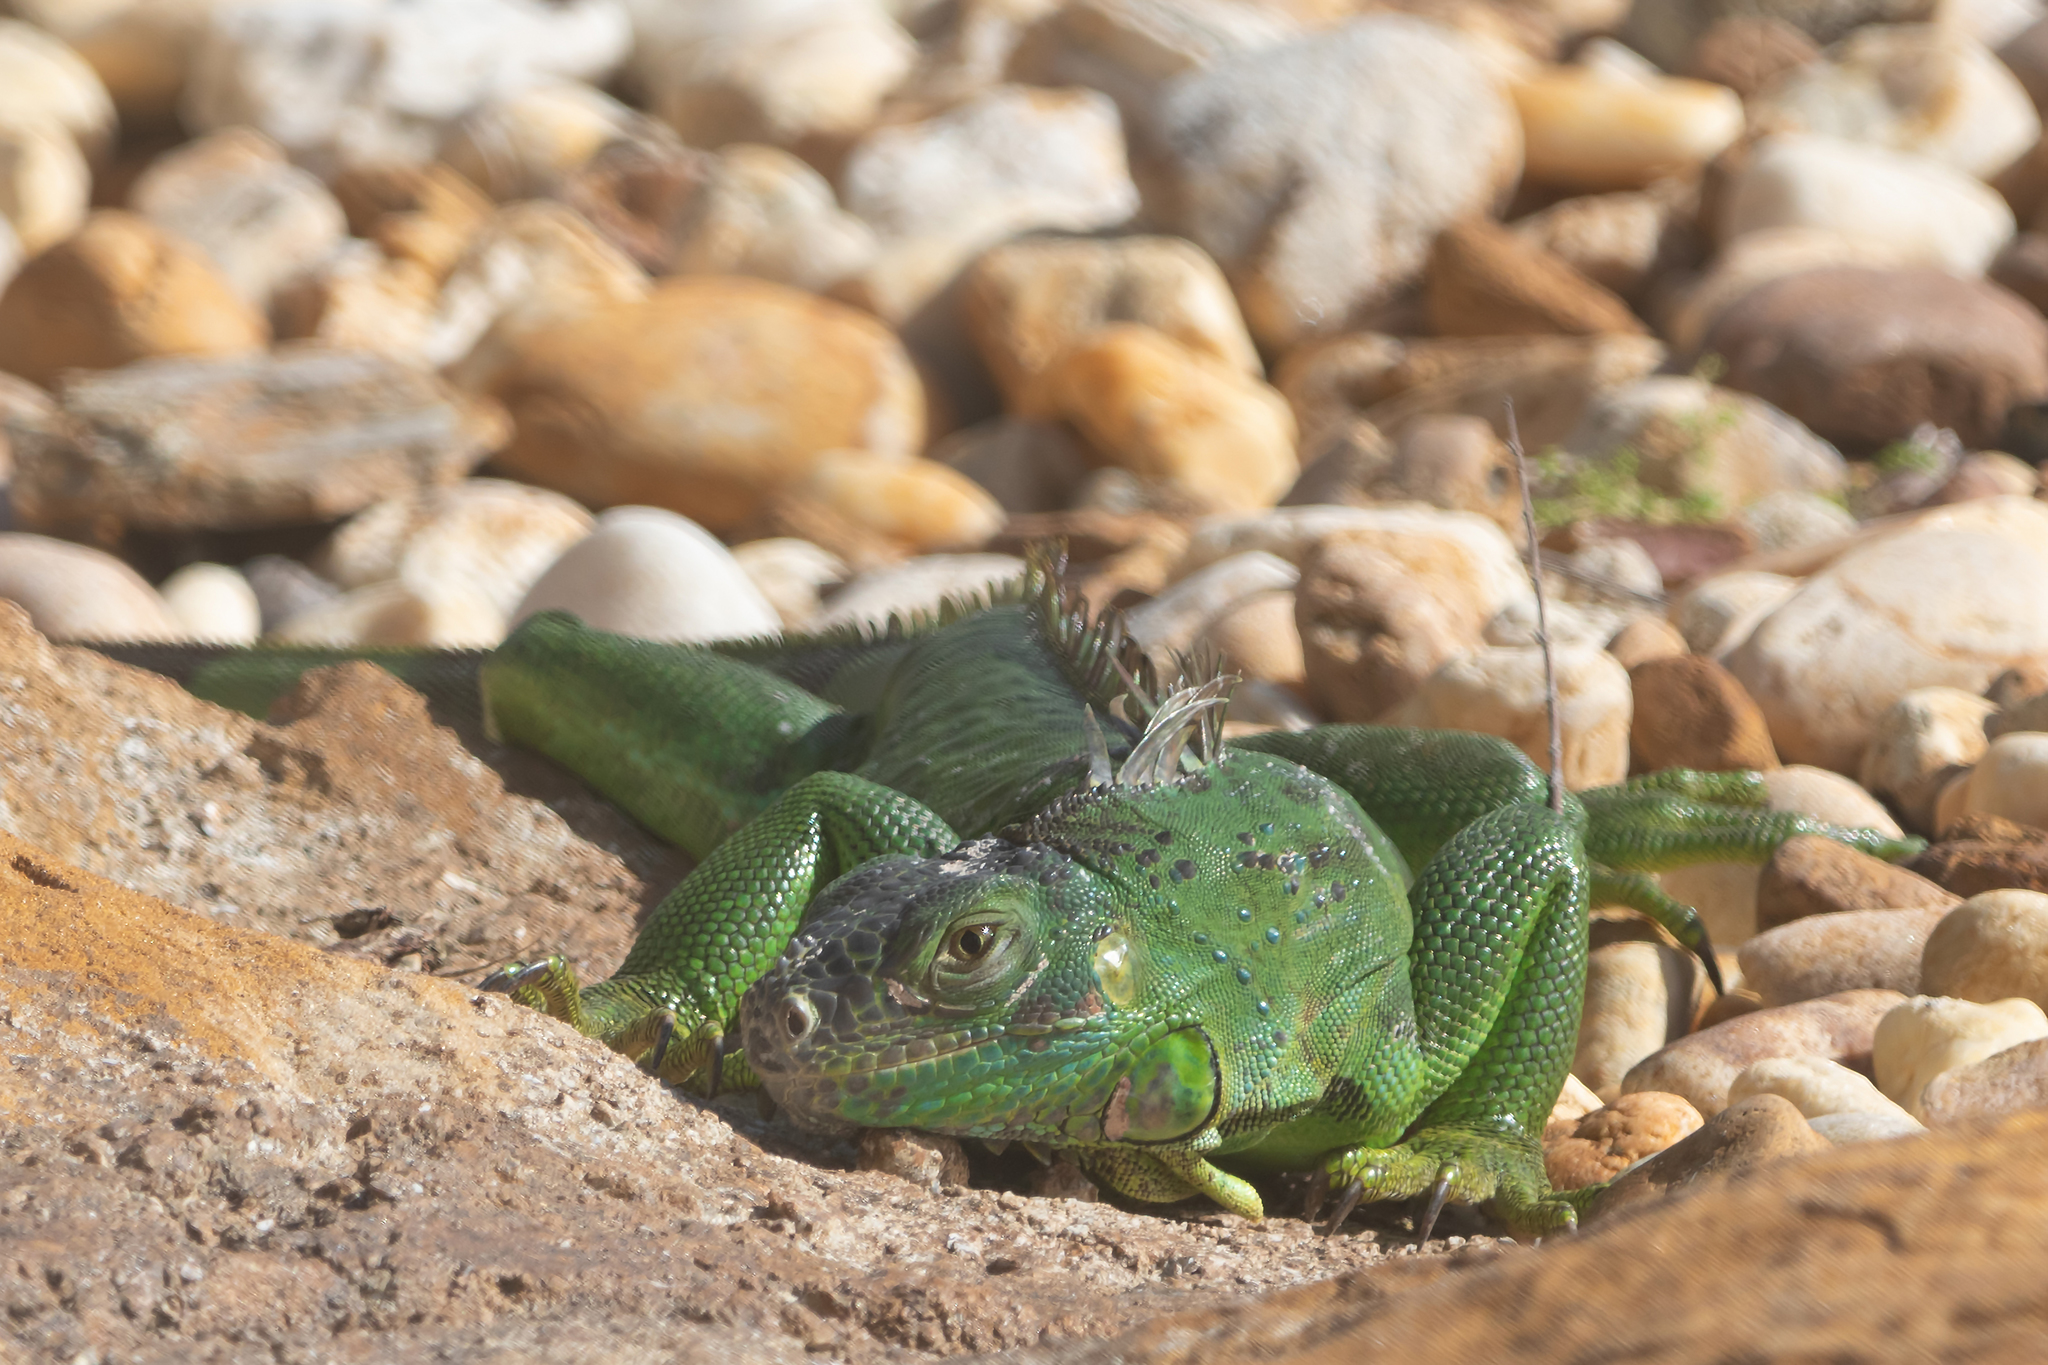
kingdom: Animalia
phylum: Chordata
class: Squamata
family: Iguanidae
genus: Iguana
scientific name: Iguana iguana
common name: Green iguana
